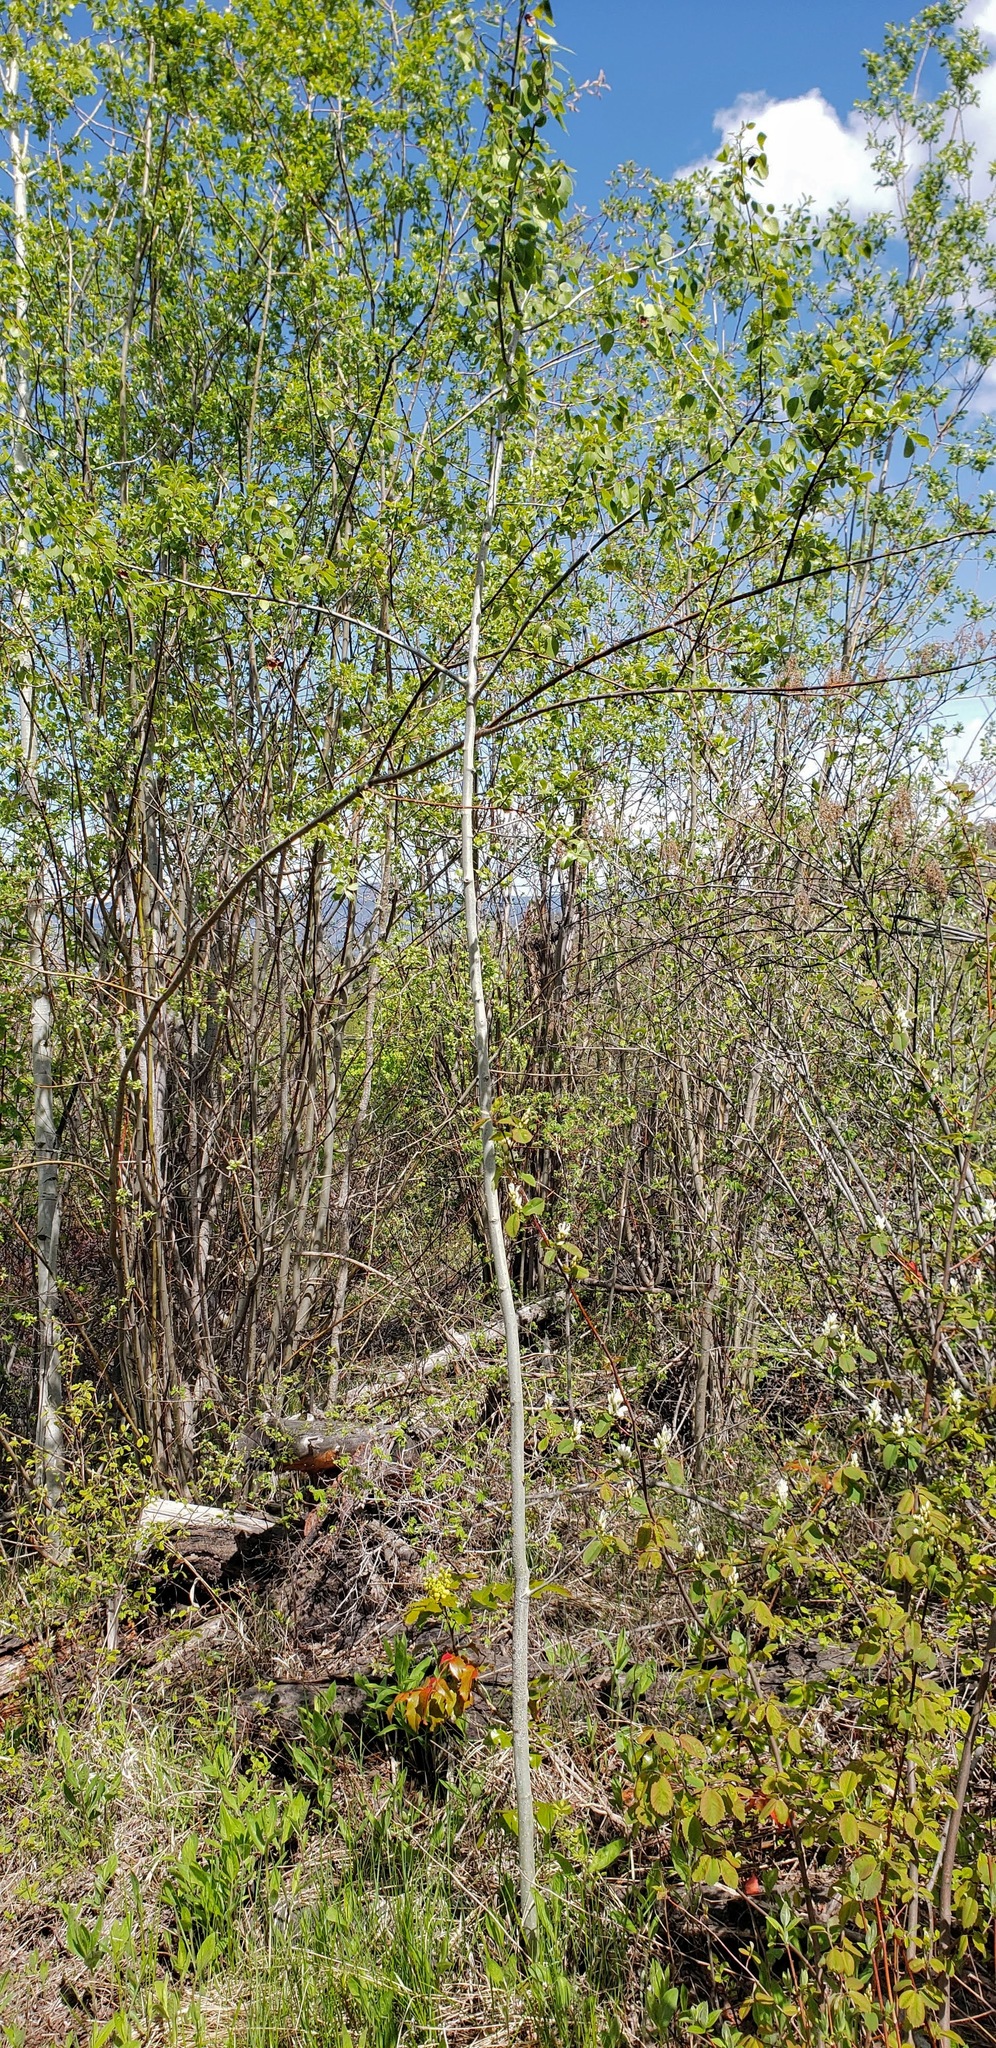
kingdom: Plantae
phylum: Tracheophyta
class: Magnoliopsida
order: Malpighiales
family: Salicaceae
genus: Populus
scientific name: Populus tremuloides
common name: Quaking aspen
